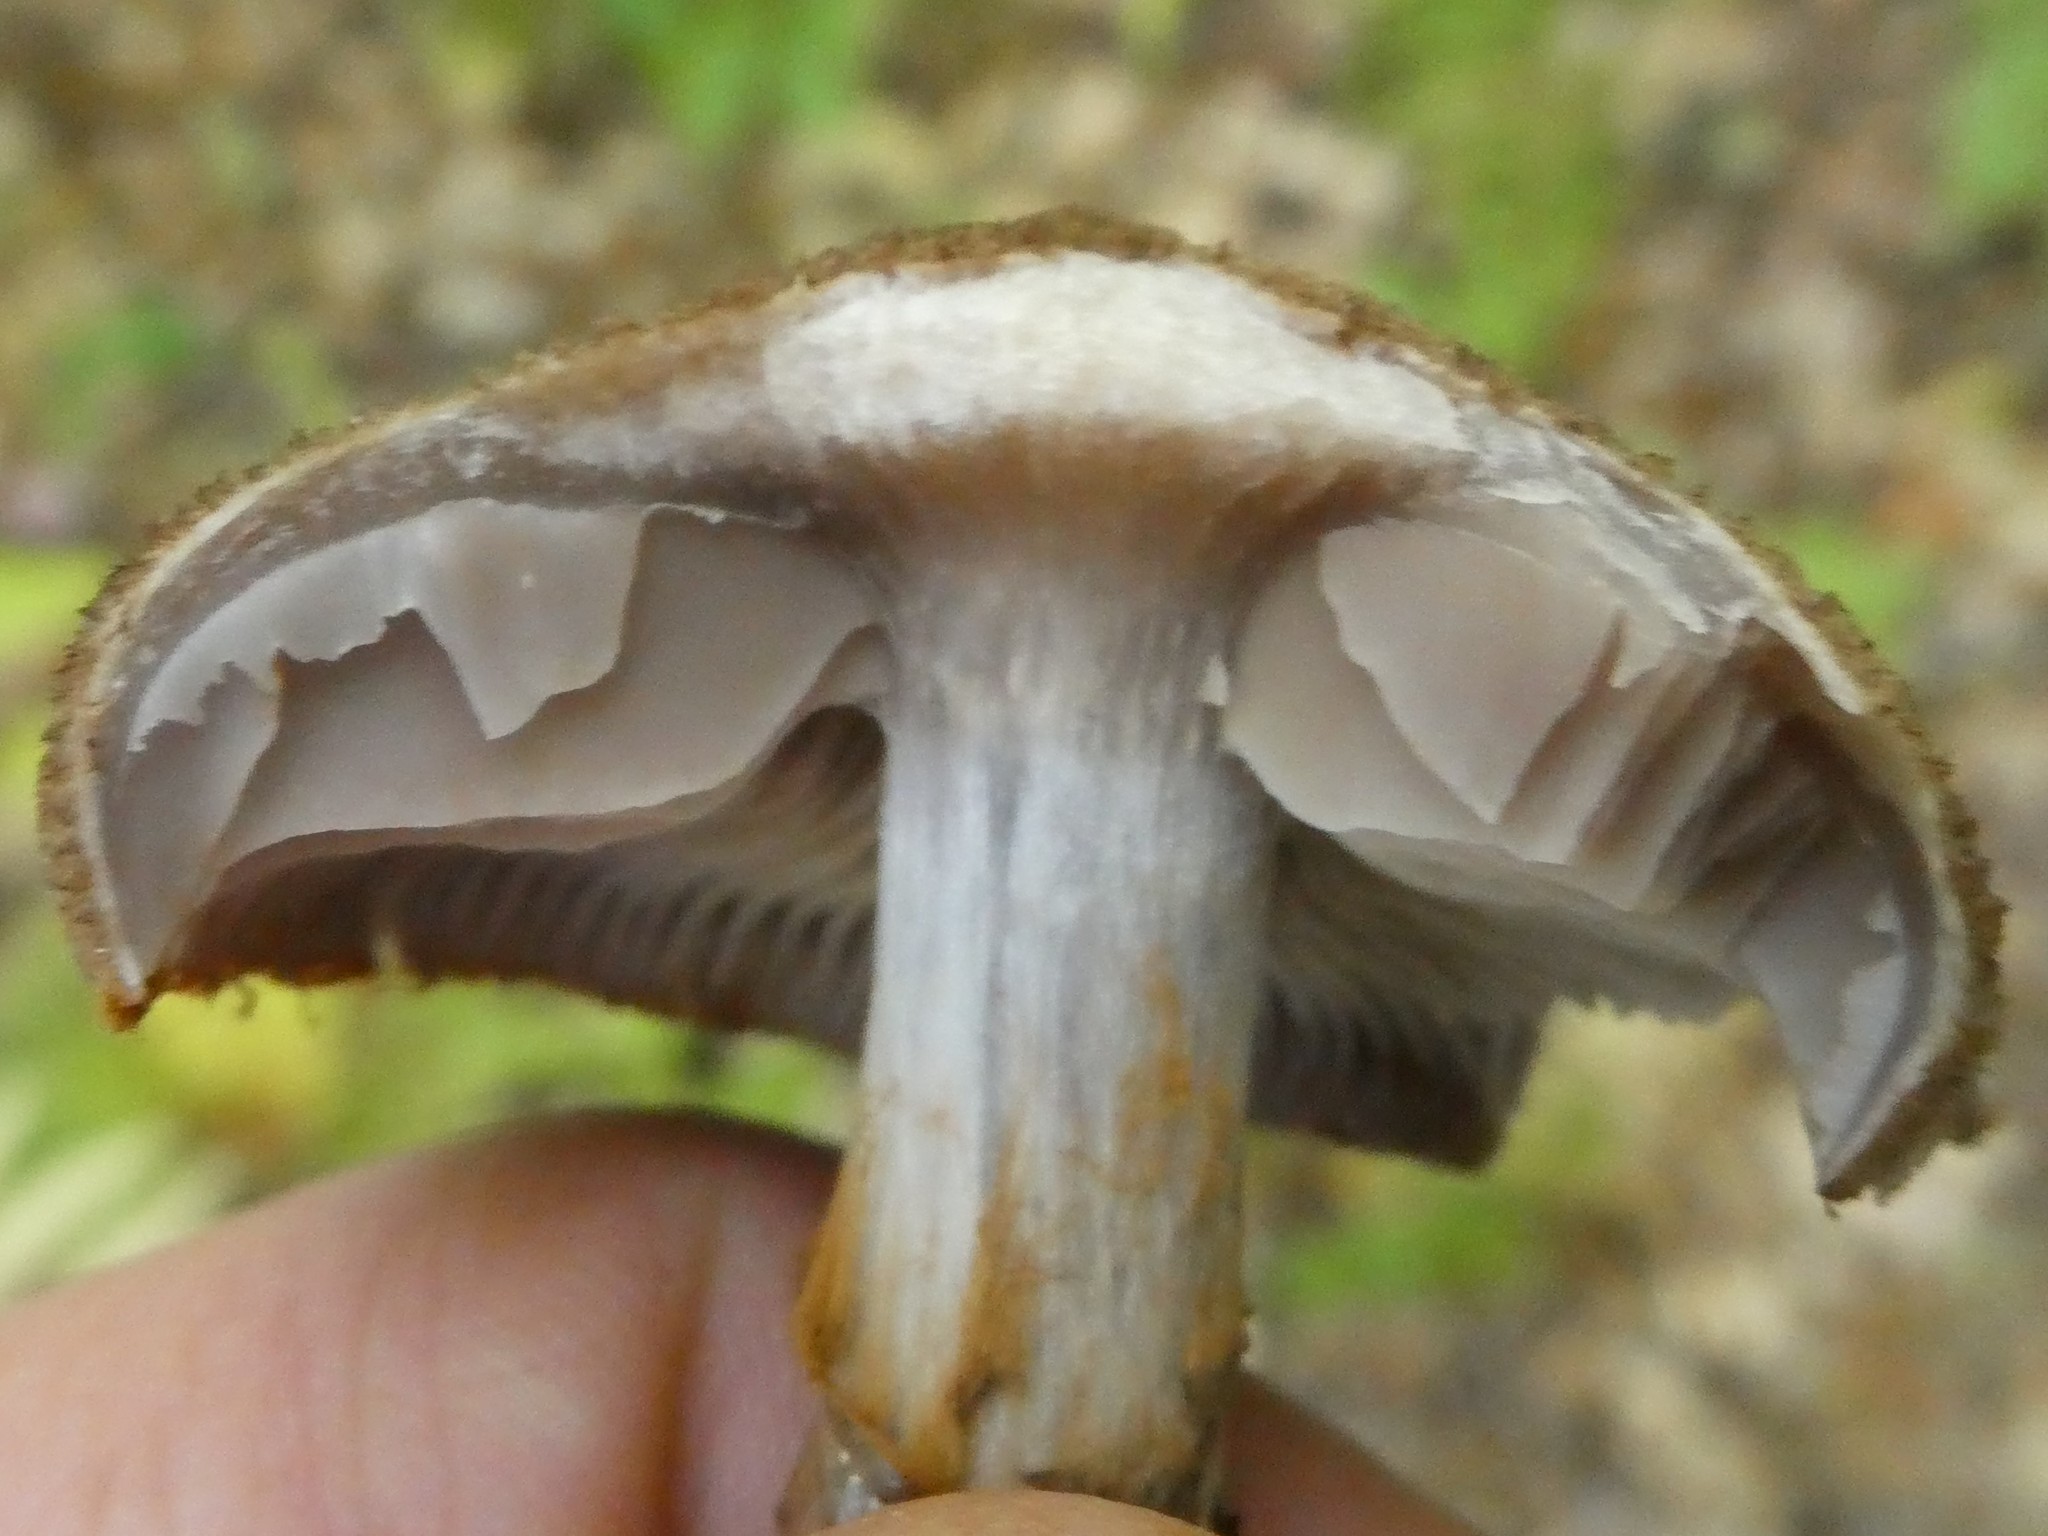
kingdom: Fungi
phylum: Basidiomycota
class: Agaricomycetes
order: Agaricales
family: Cortinariaceae
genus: Cortinarius
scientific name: Cortinarius pholideus
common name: Scaly webcap
